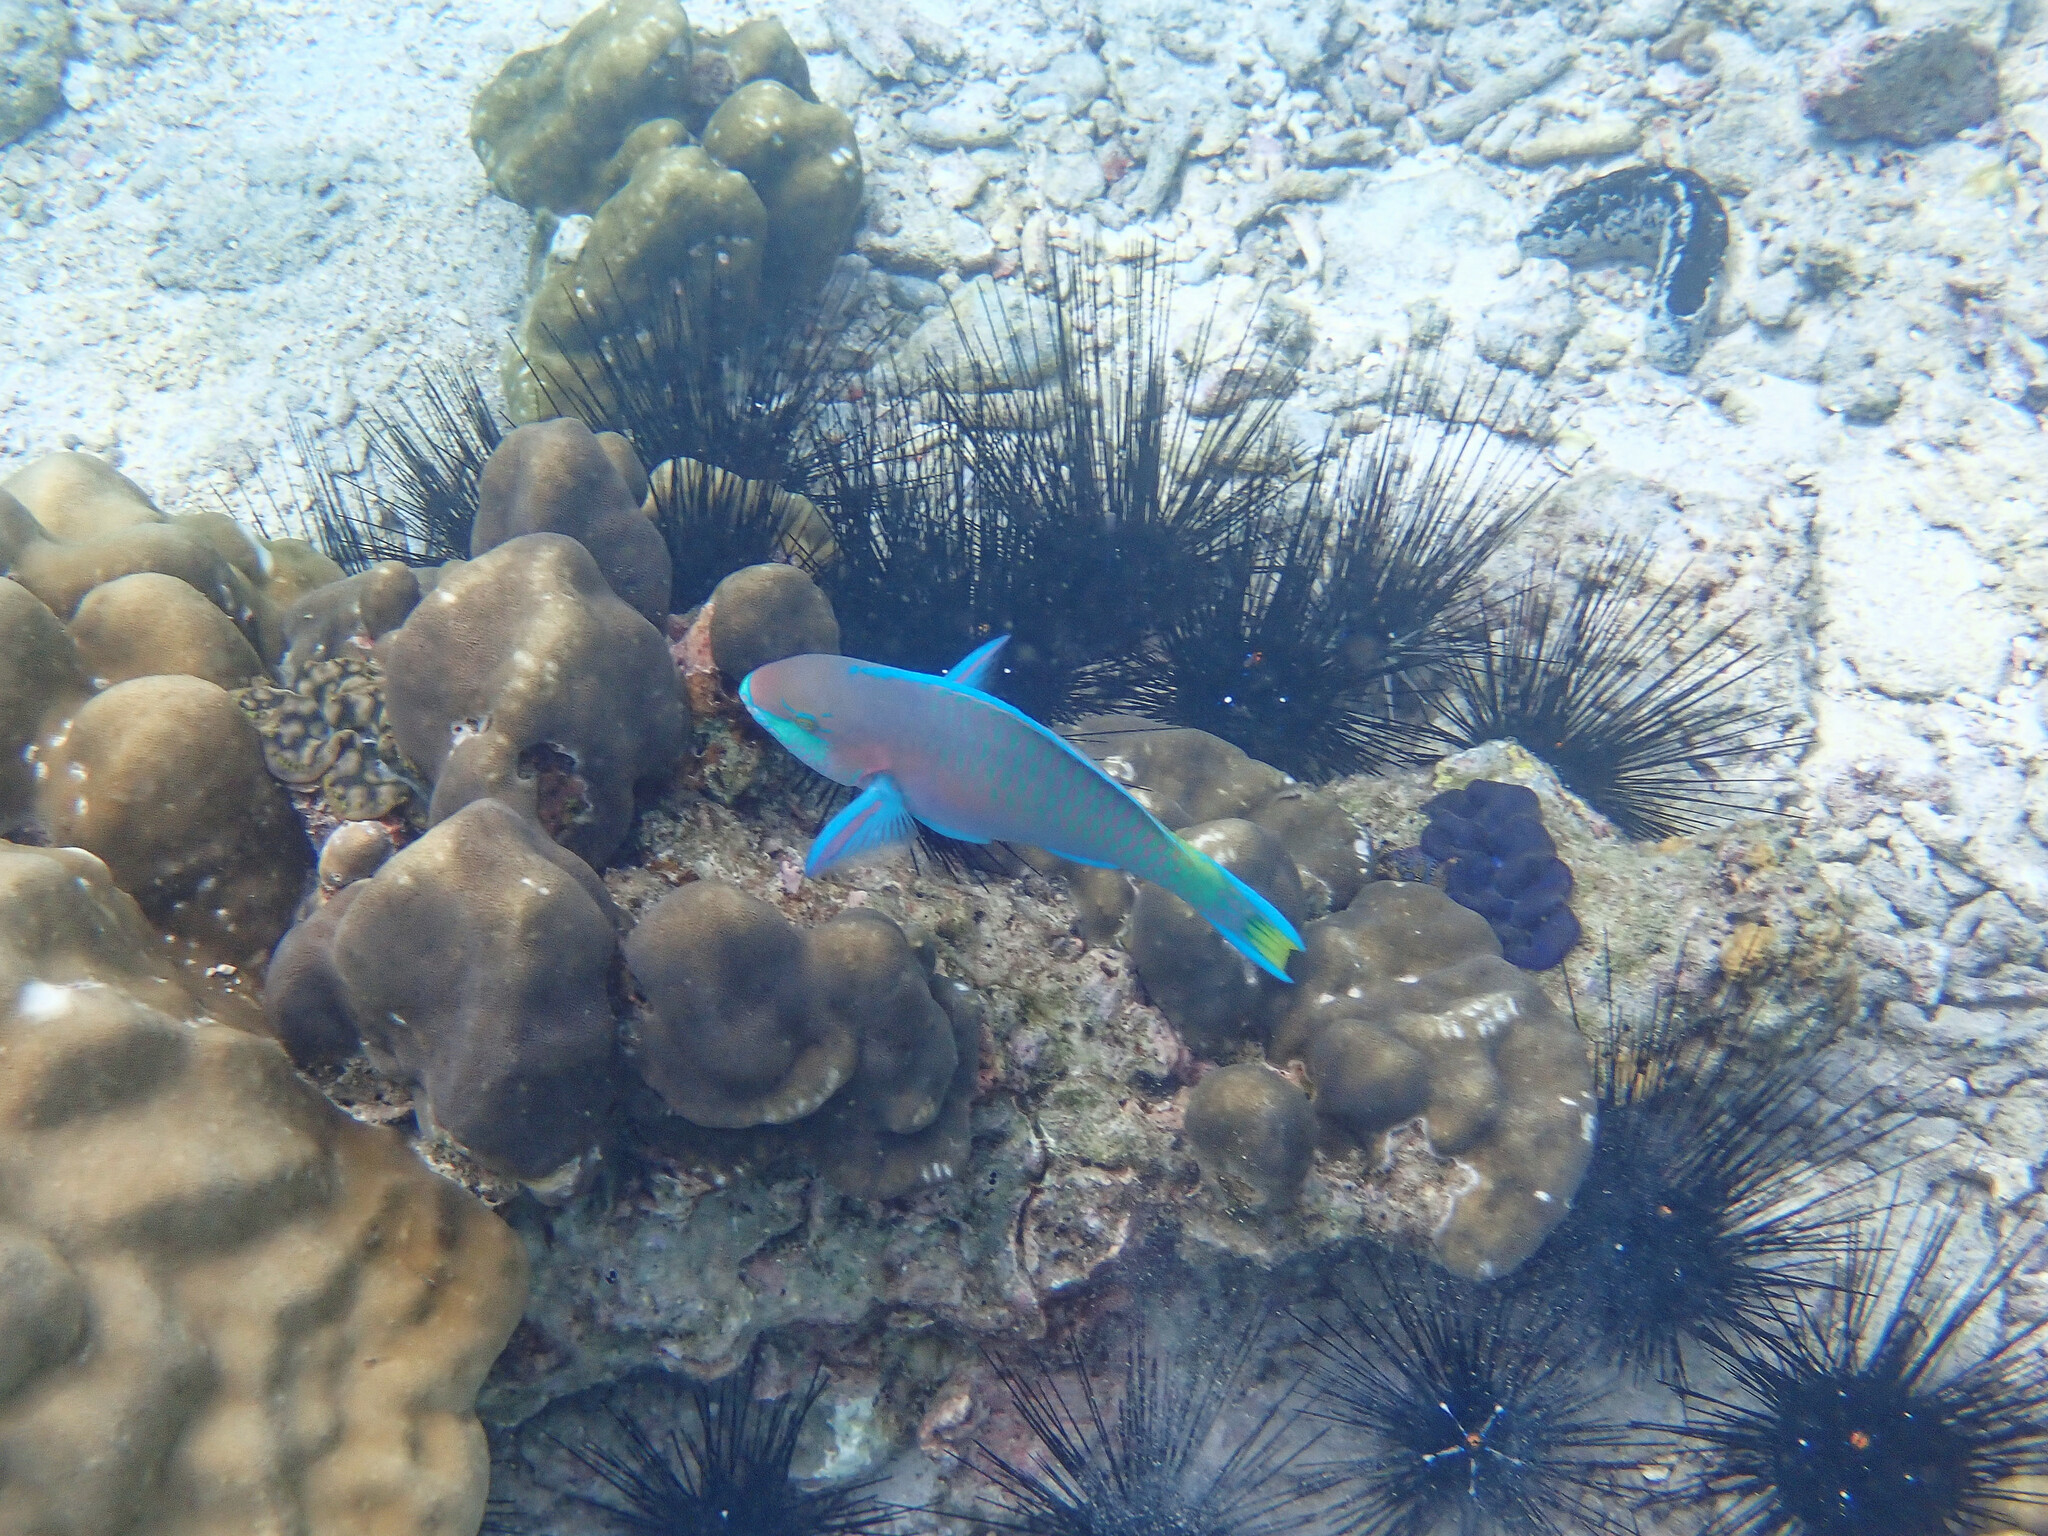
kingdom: Animalia
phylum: Chordata
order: Perciformes
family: Scaridae
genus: Scarus
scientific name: Scarus quoyi
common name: Quoy's parrotfish
